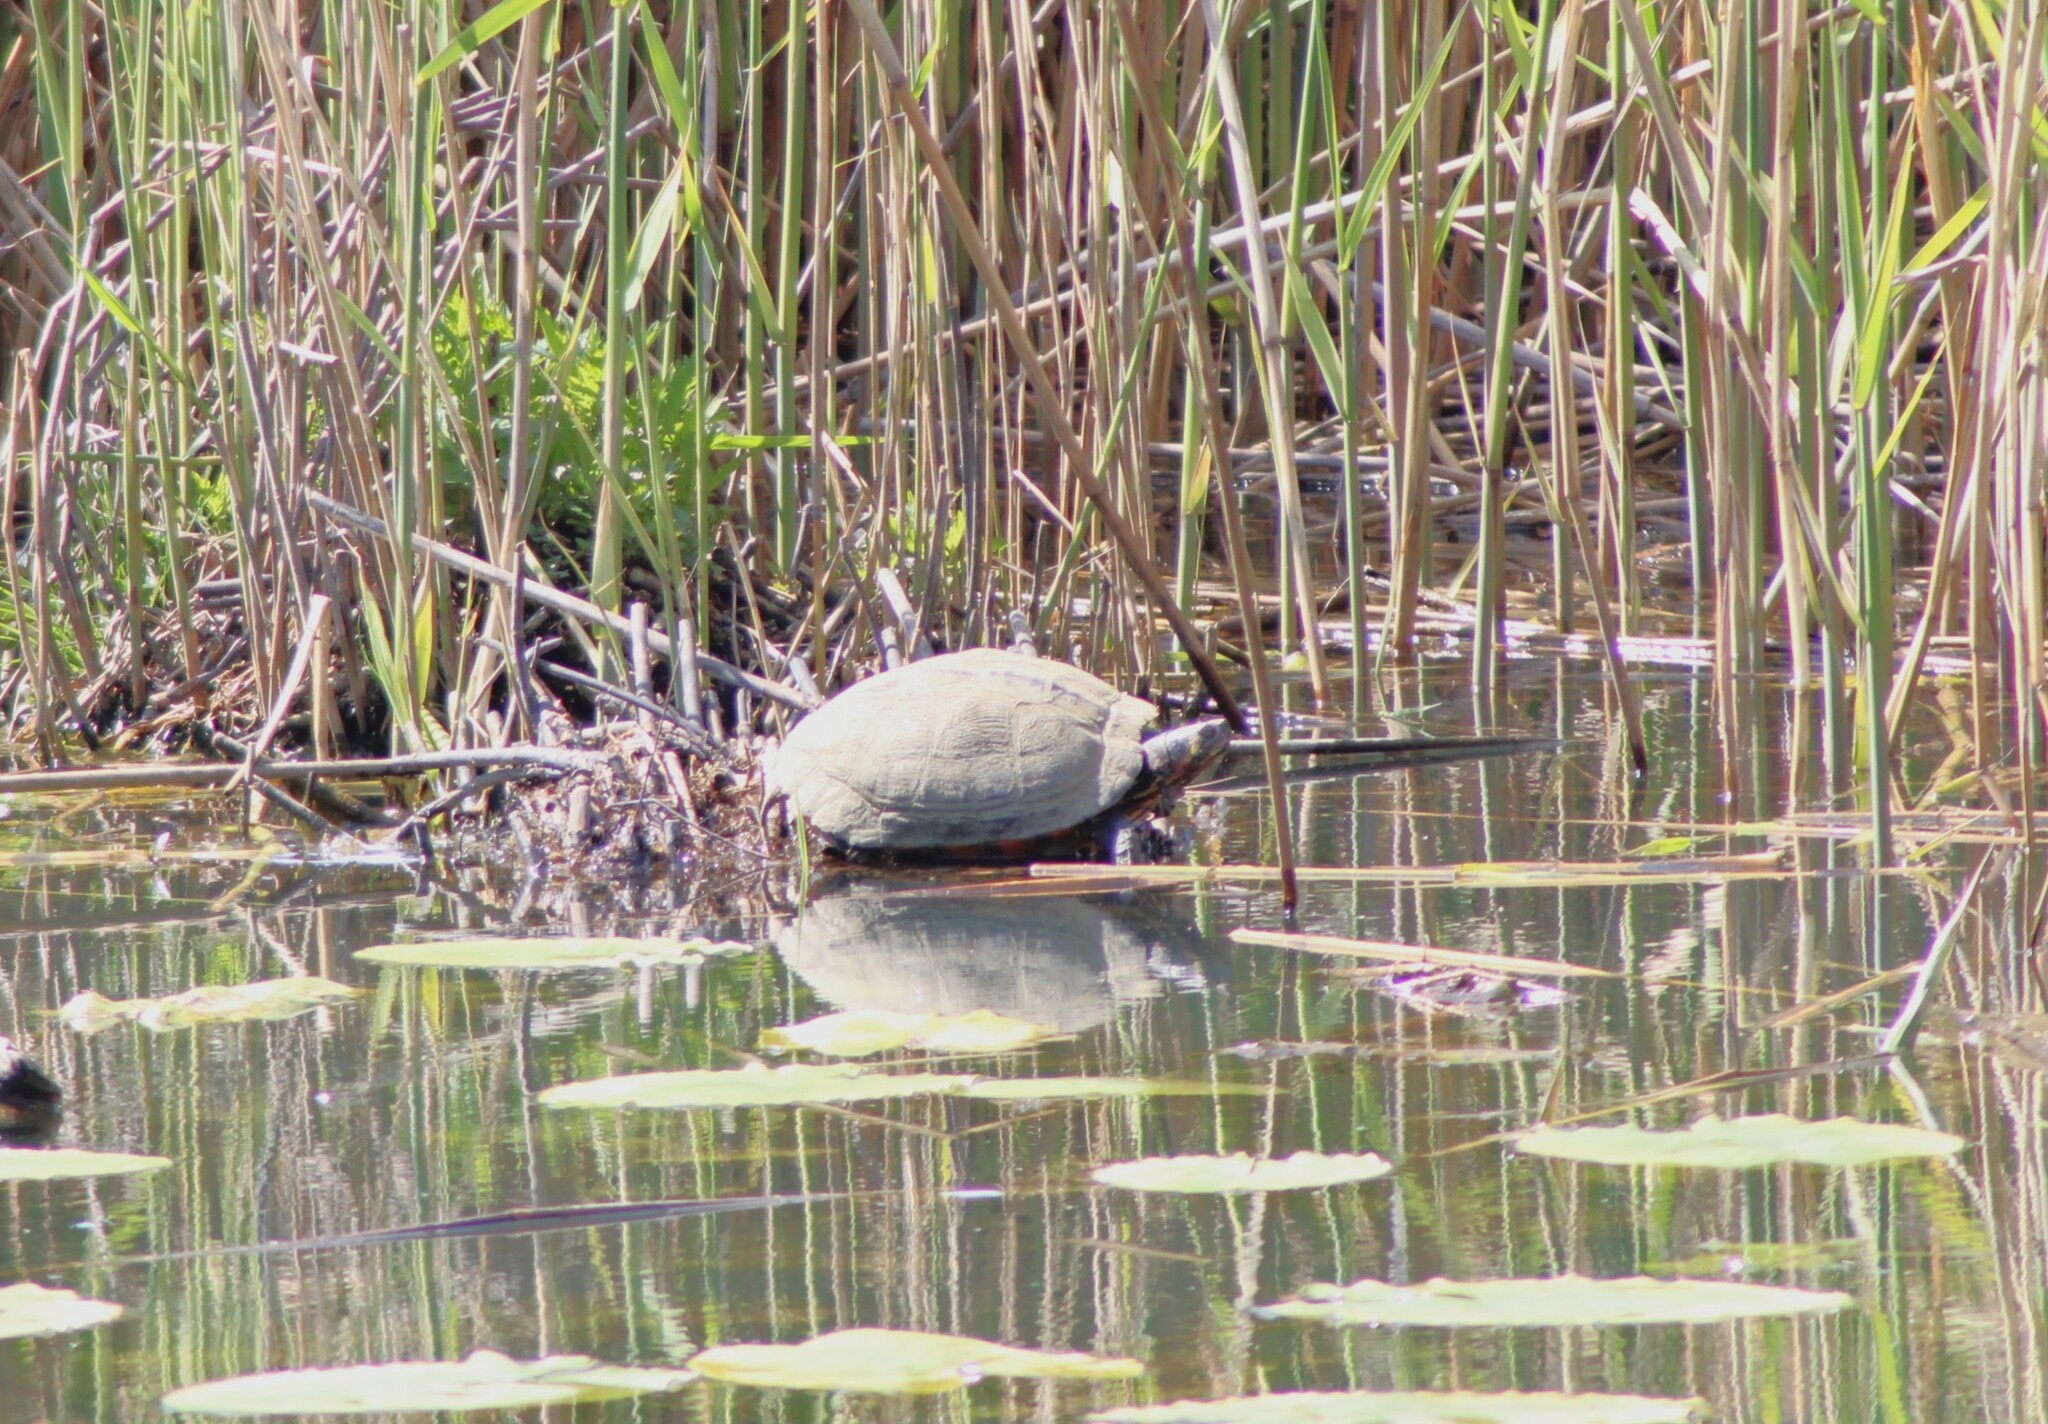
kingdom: Animalia
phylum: Chordata
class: Testudines
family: Emydidae
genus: Trachemys
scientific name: Trachemys scripta
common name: Slider
